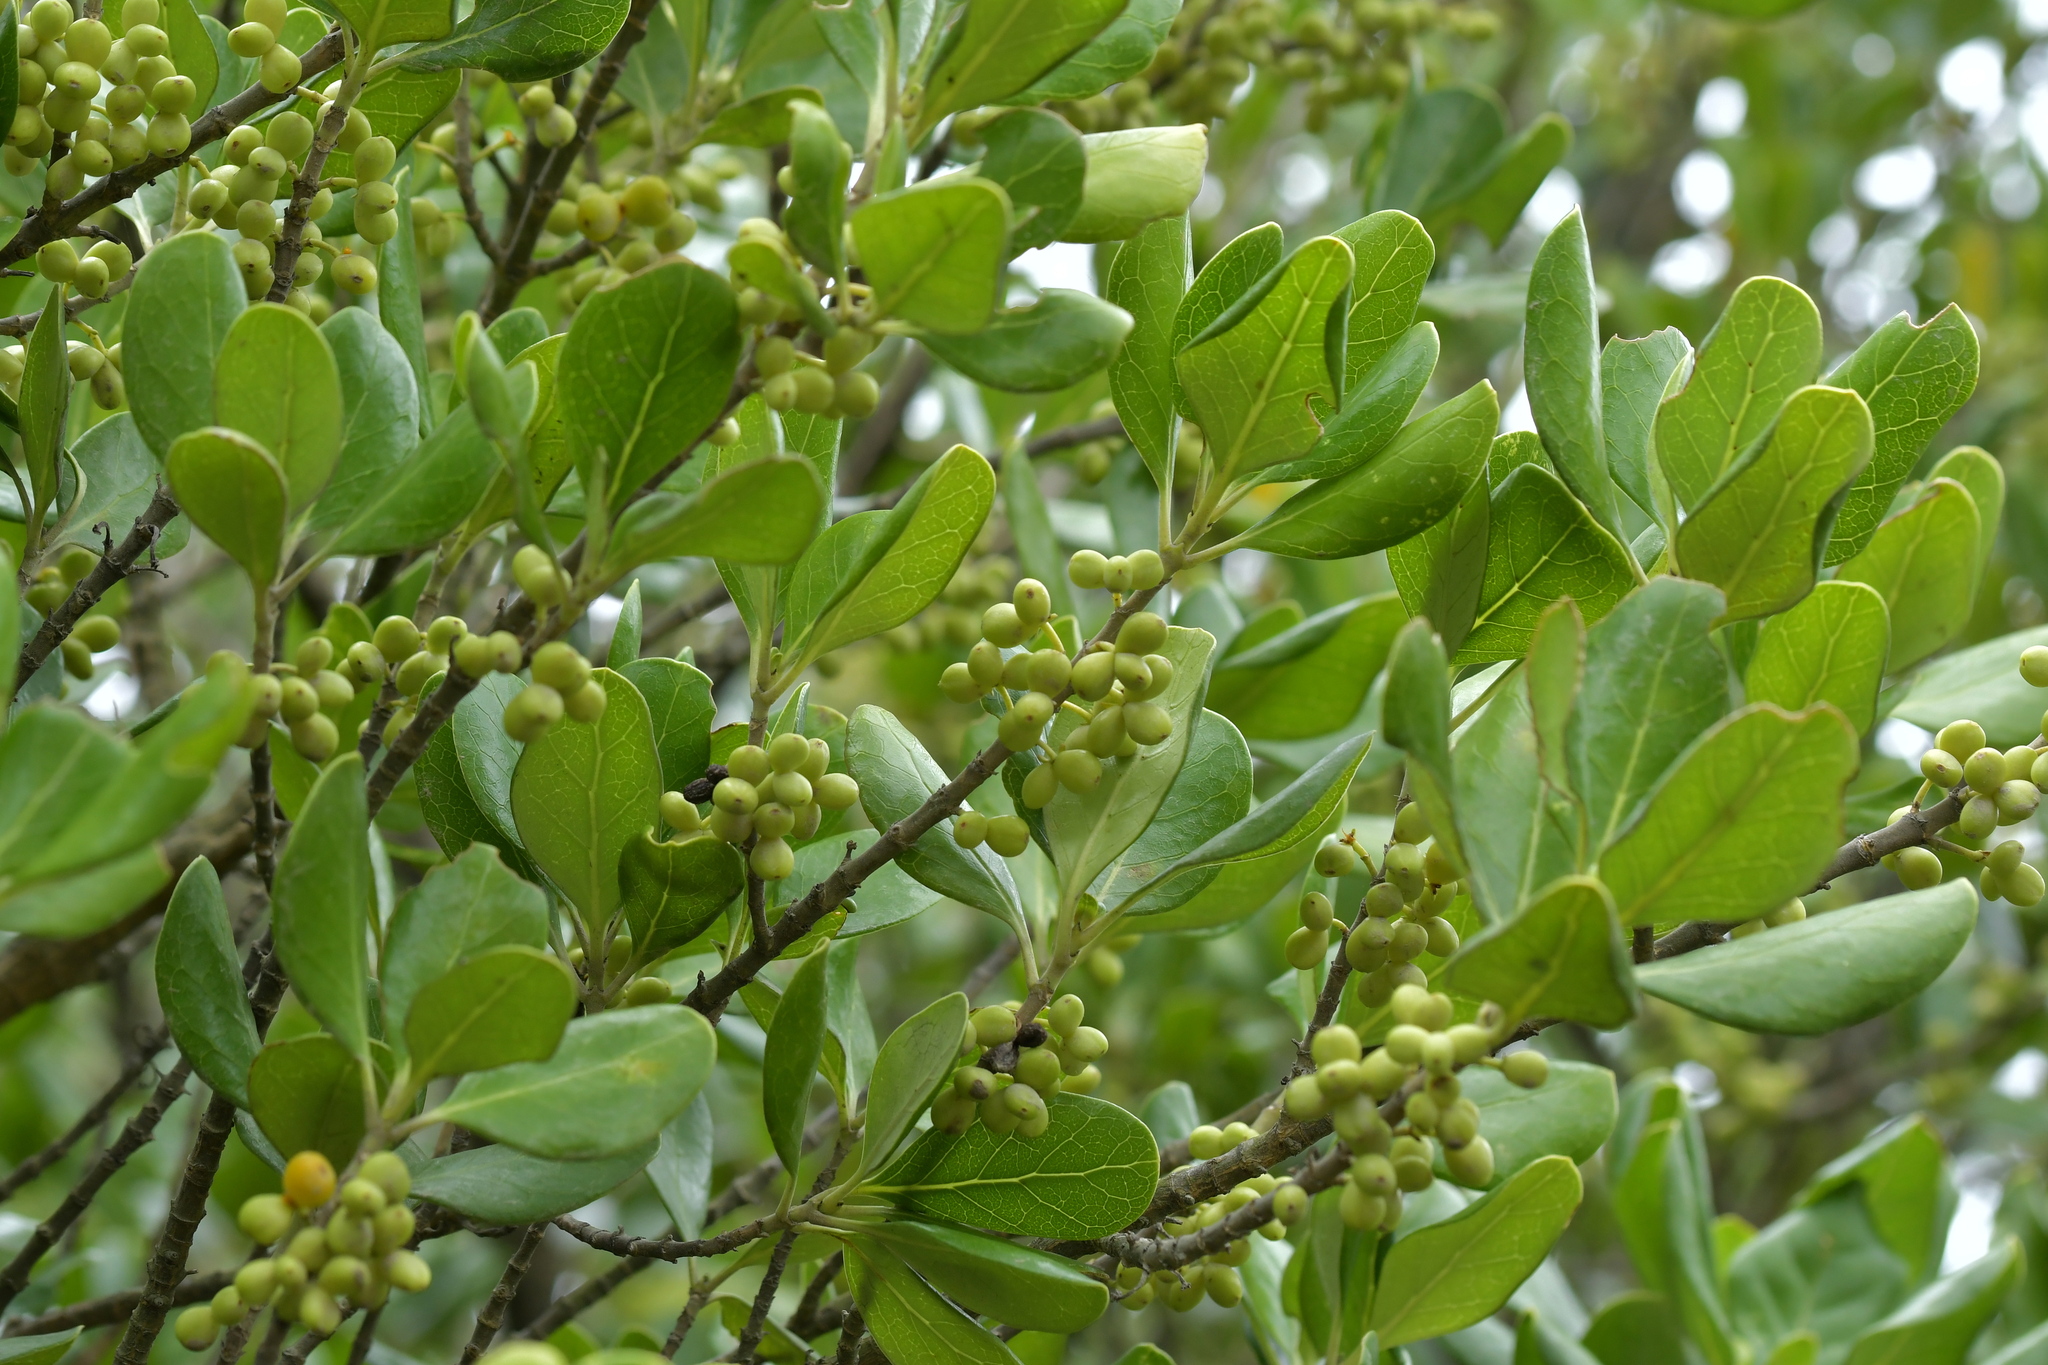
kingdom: Plantae
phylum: Tracheophyta
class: Magnoliopsida
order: Gentianales
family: Rubiaceae
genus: Coprosma
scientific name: Coprosma repens
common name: Tree bedstraw
